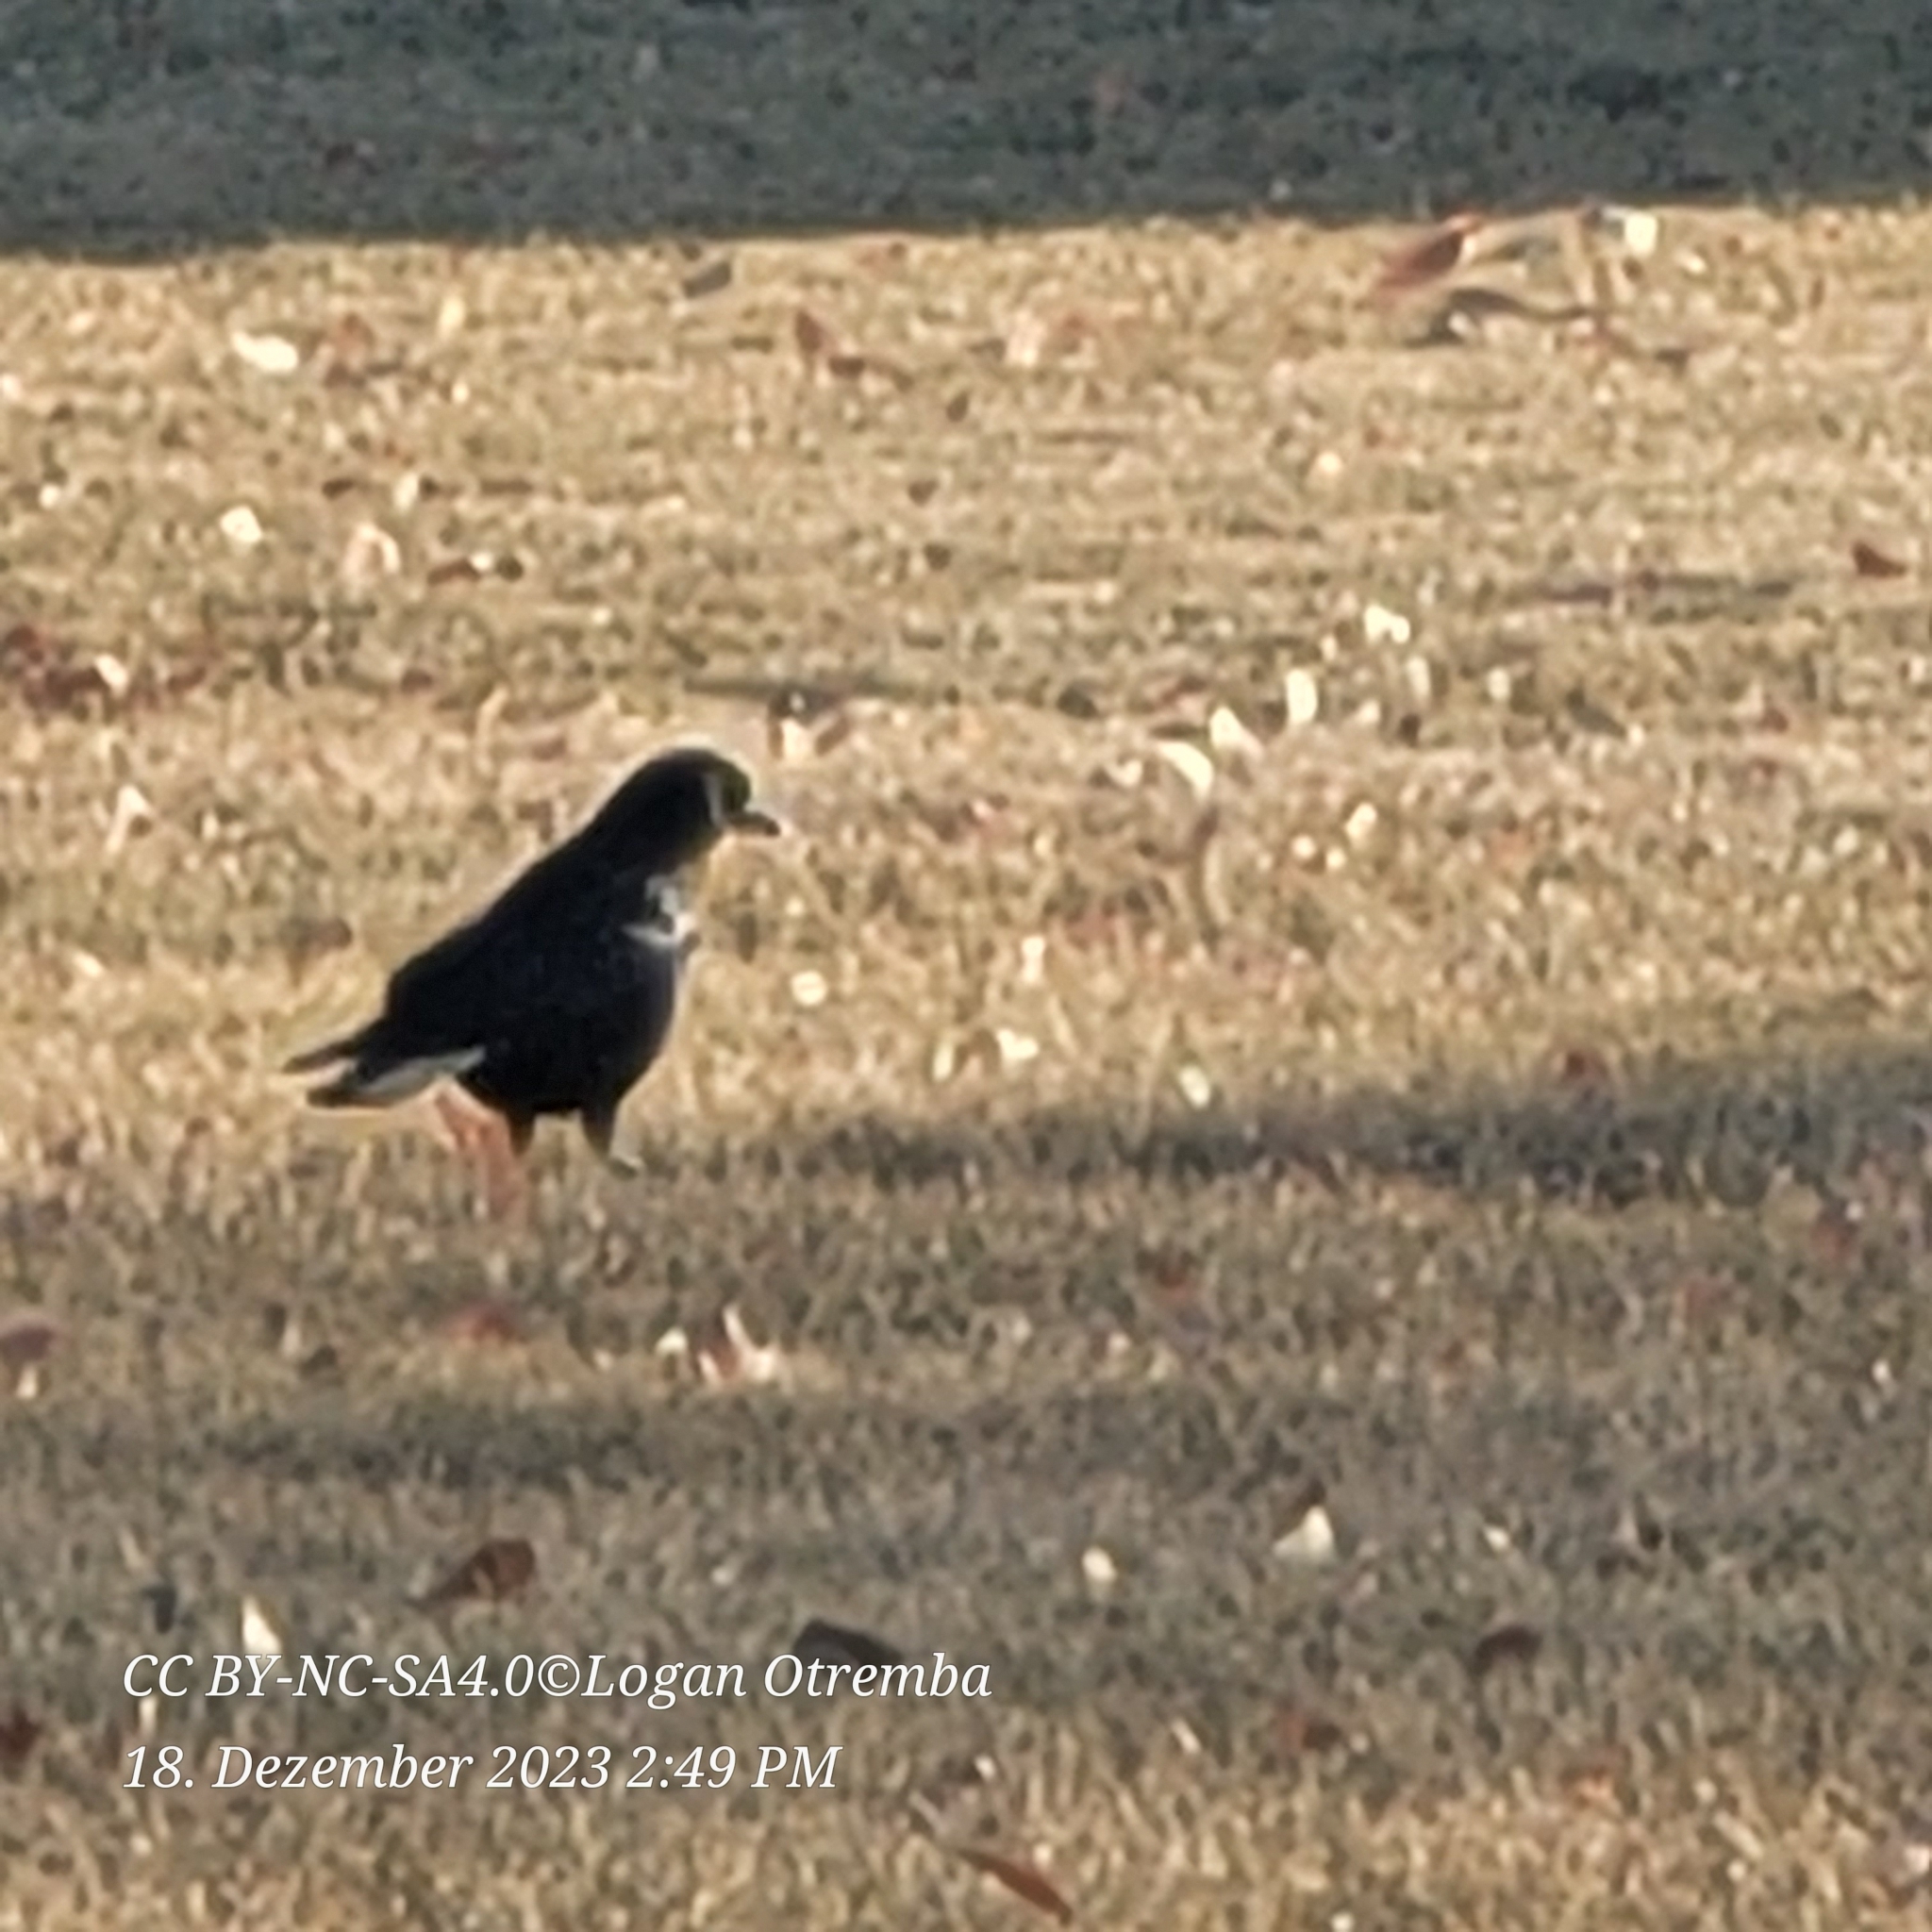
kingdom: Animalia
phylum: Chordata
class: Aves
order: Passeriformes
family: Corvidae
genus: Corvus
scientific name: Corvus brachyrhynchos
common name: American crow
